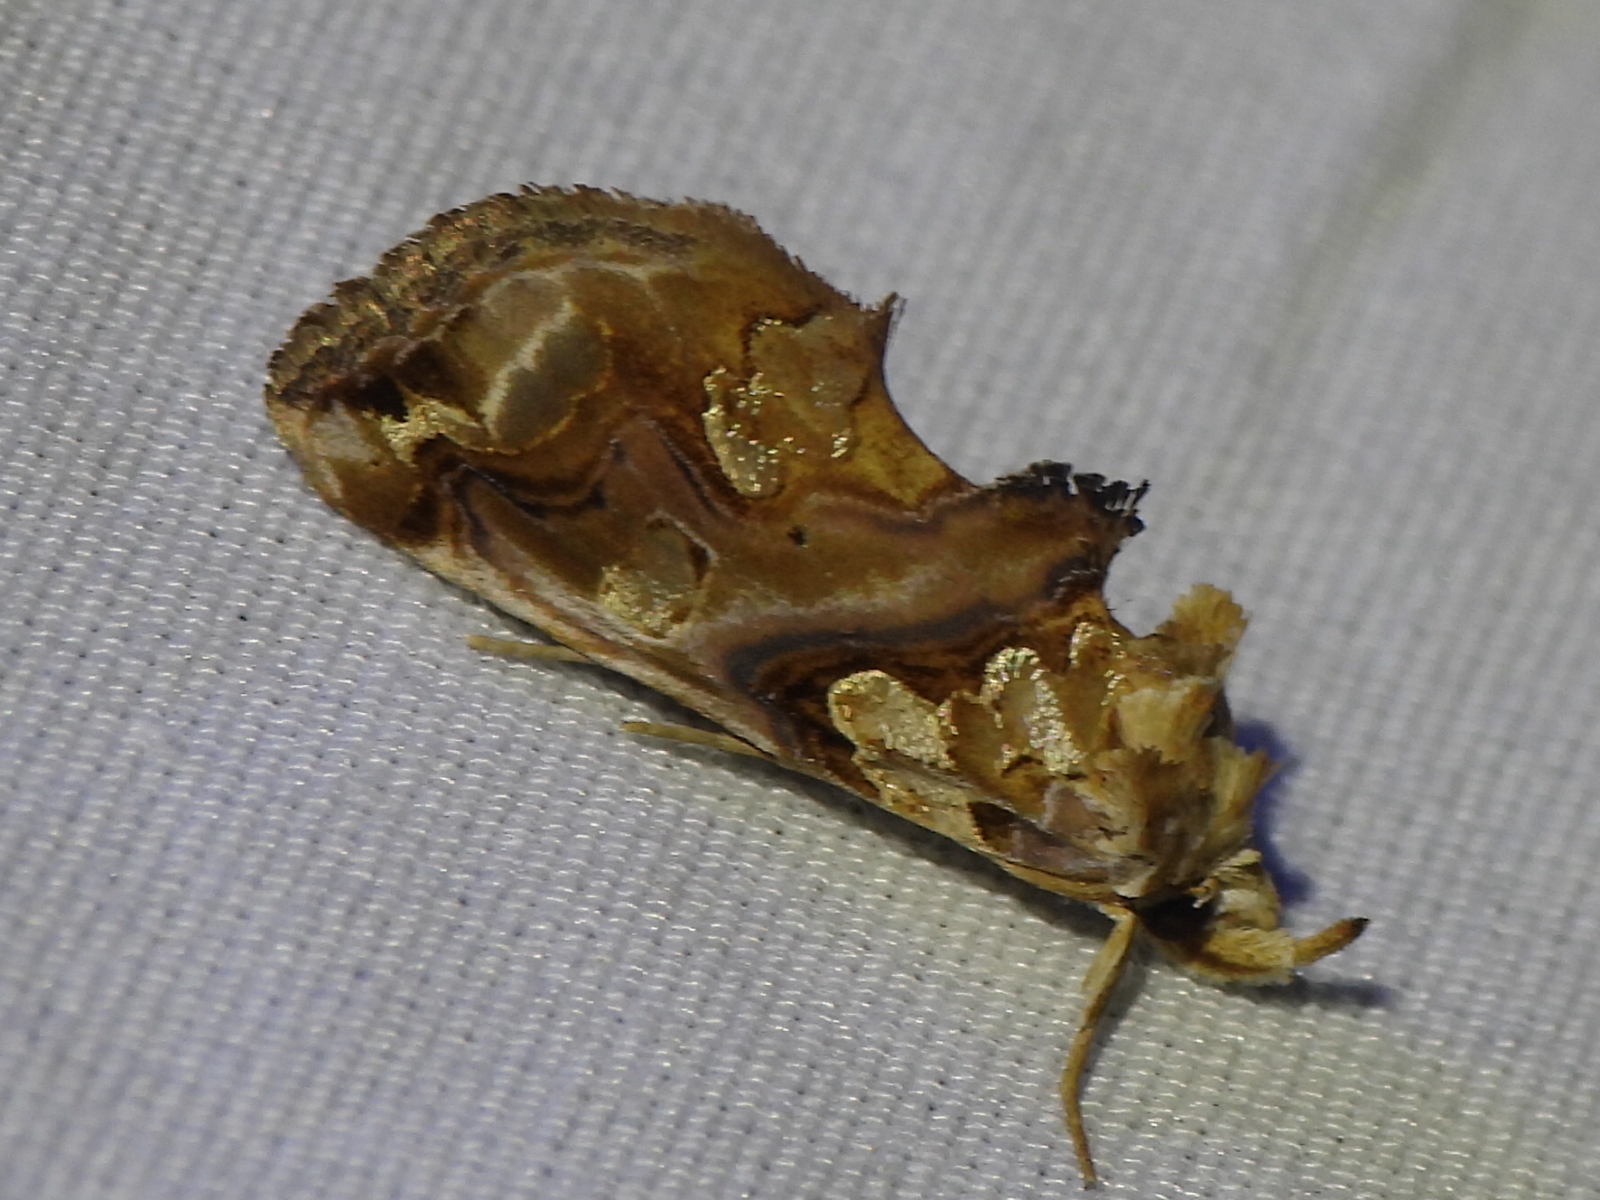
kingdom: Animalia
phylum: Arthropoda
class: Insecta
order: Lepidoptera
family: Erebidae
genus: Plusiodonta
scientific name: Plusiodonta compressipalpis
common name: Moonseed moth
